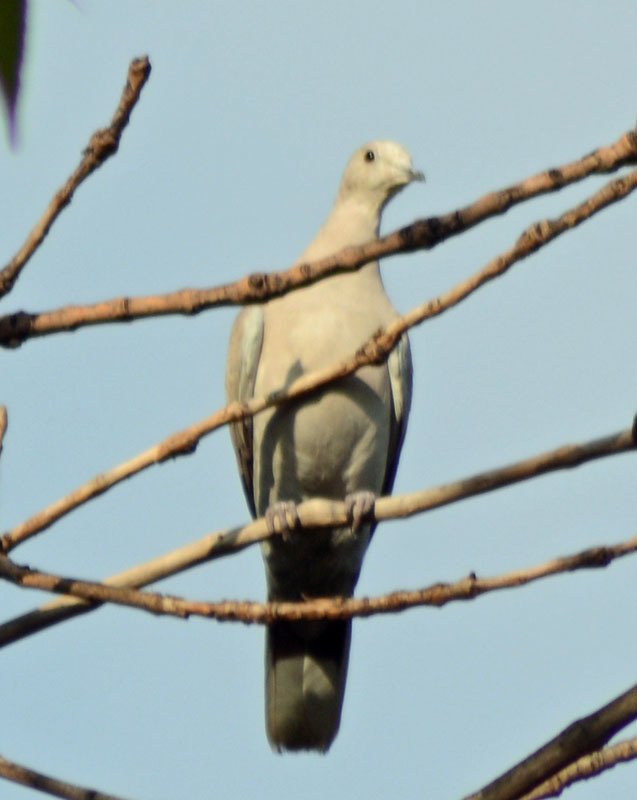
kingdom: Animalia
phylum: Chordata
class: Aves
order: Columbiformes
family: Columbidae
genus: Streptopelia
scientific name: Streptopelia decaocto
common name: Eurasian collared dove
